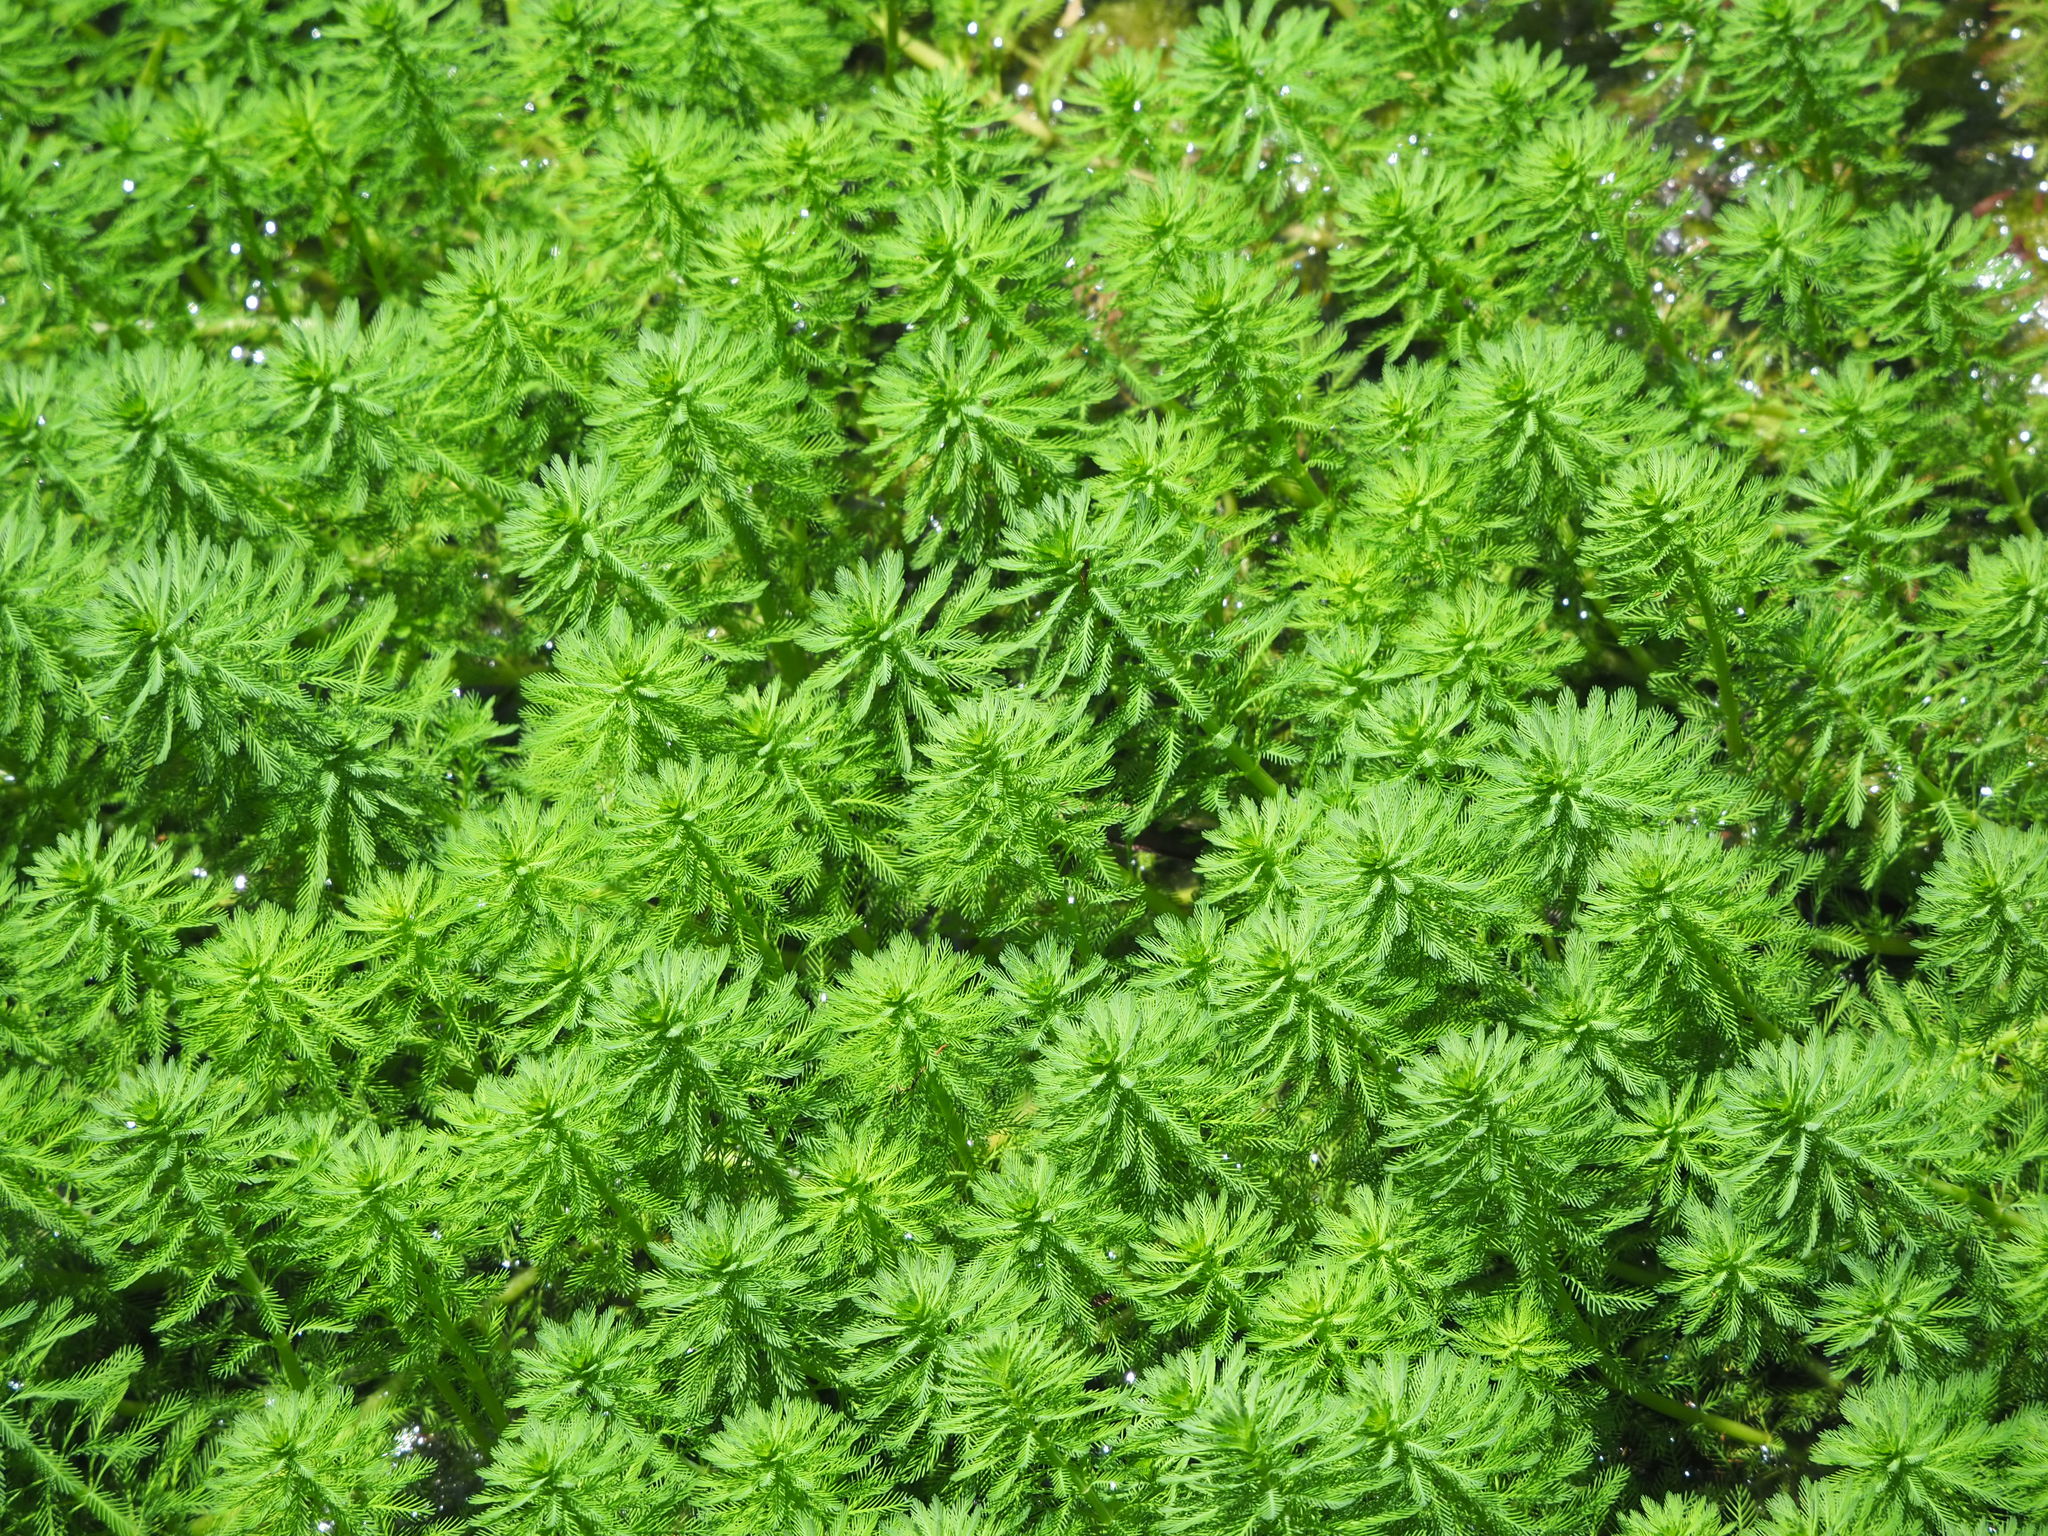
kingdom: Plantae
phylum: Tracheophyta
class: Magnoliopsida
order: Saxifragales
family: Haloragaceae
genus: Myriophyllum
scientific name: Myriophyllum aquaticum
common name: Parrot's feather
